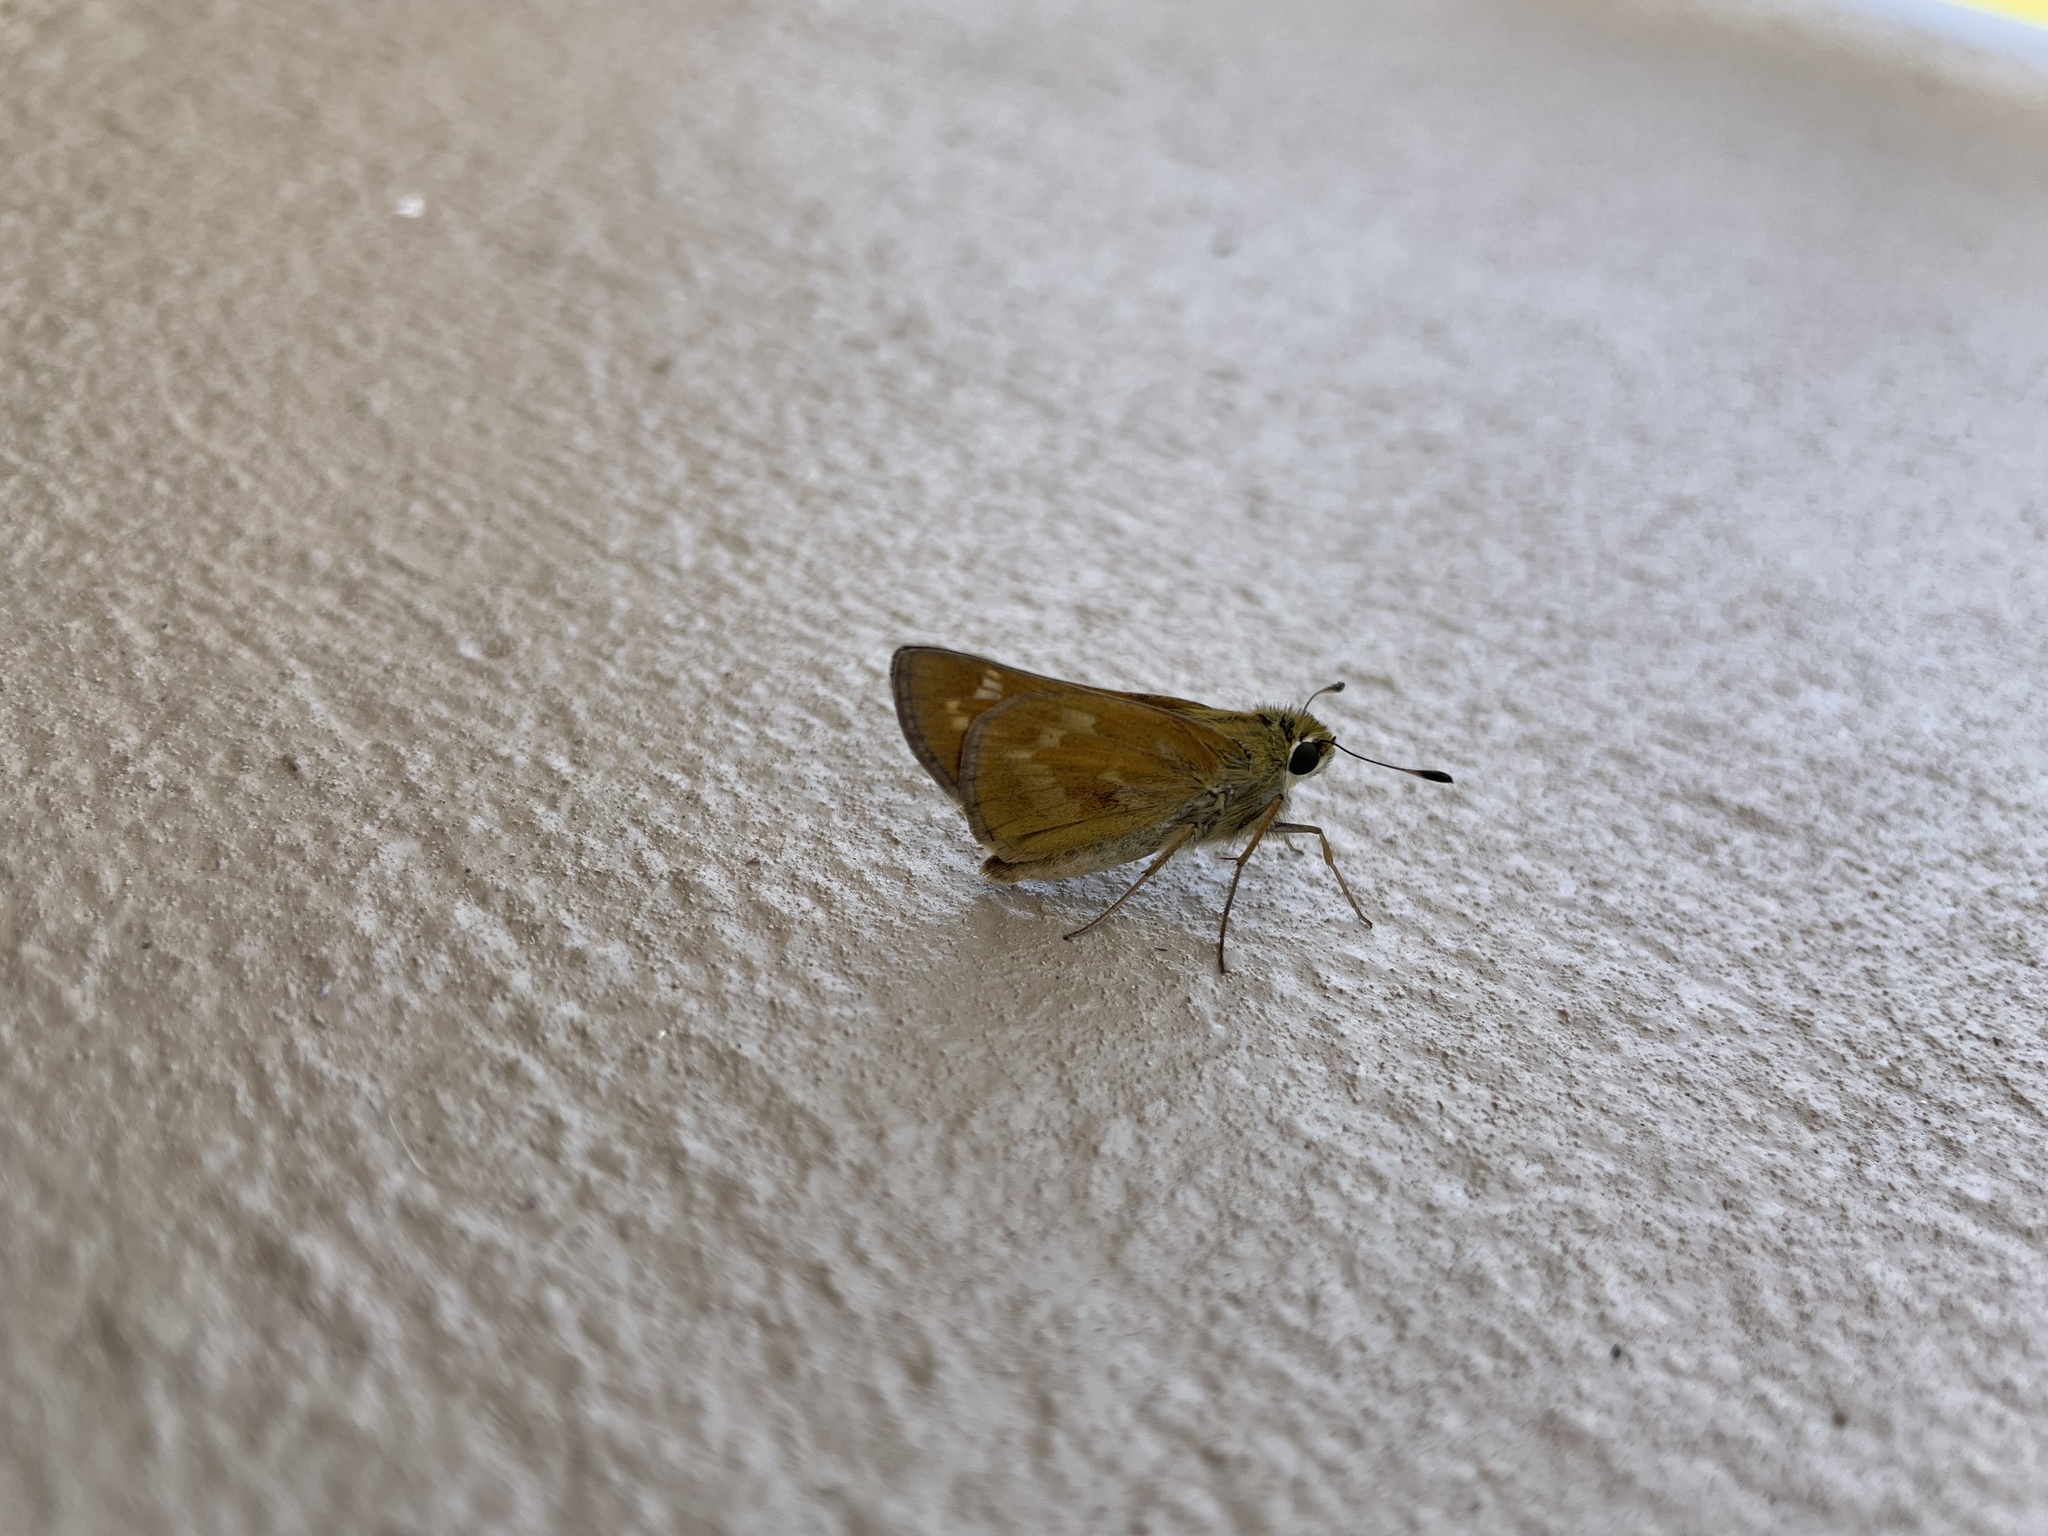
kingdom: Animalia
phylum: Arthropoda
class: Insecta
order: Lepidoptera
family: Hesperiidae
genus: Atalopedes
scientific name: Atalopedes
